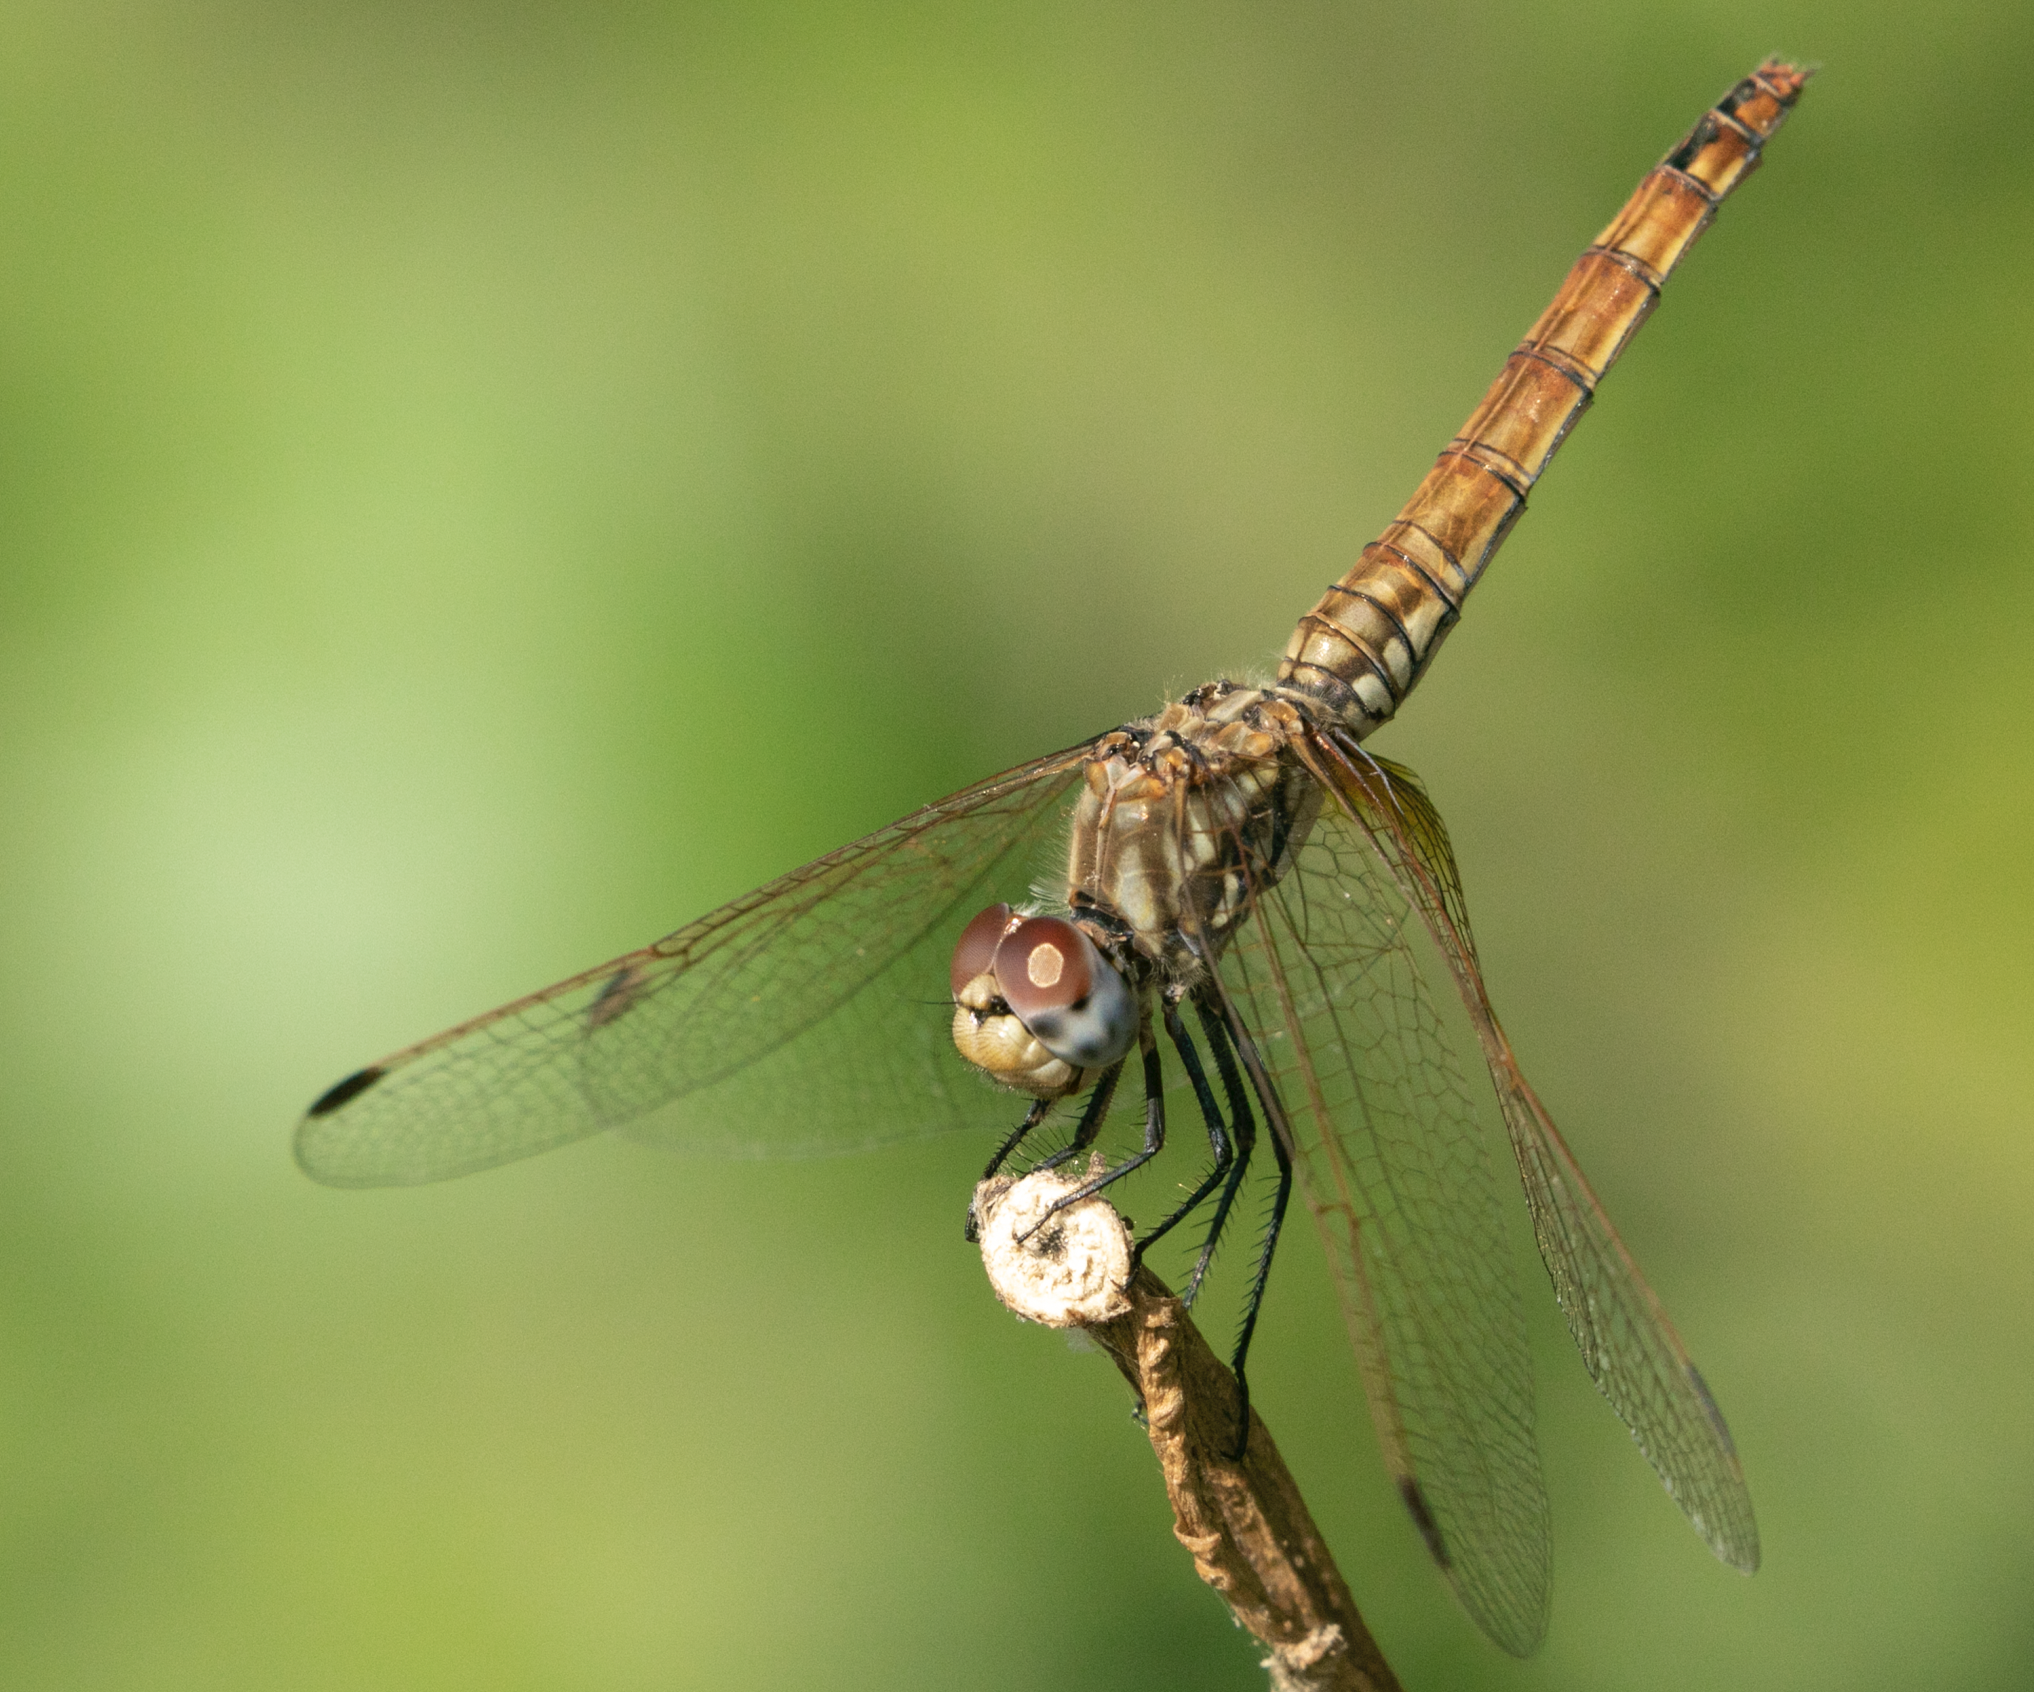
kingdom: Animalia
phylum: Arthropoda
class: Insecta
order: Odonata
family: Libellulidae
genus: Trithemis
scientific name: Trithemis annulata
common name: Violet dropwing
